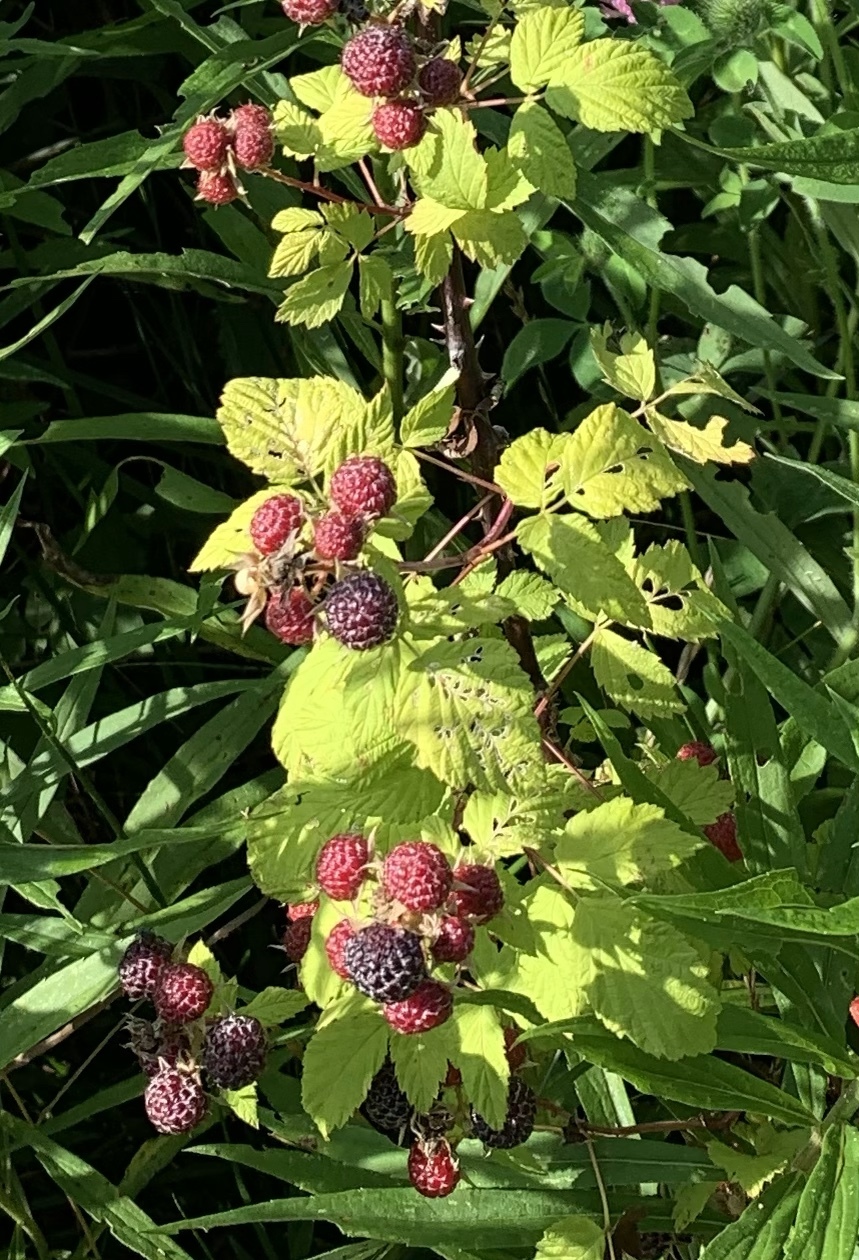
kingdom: Plantae
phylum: Tracheophyta
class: Magnoliopsida
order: Rosales
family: Rosaceae
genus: Rubus
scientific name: Rubus occidentalis
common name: Black raspberry
